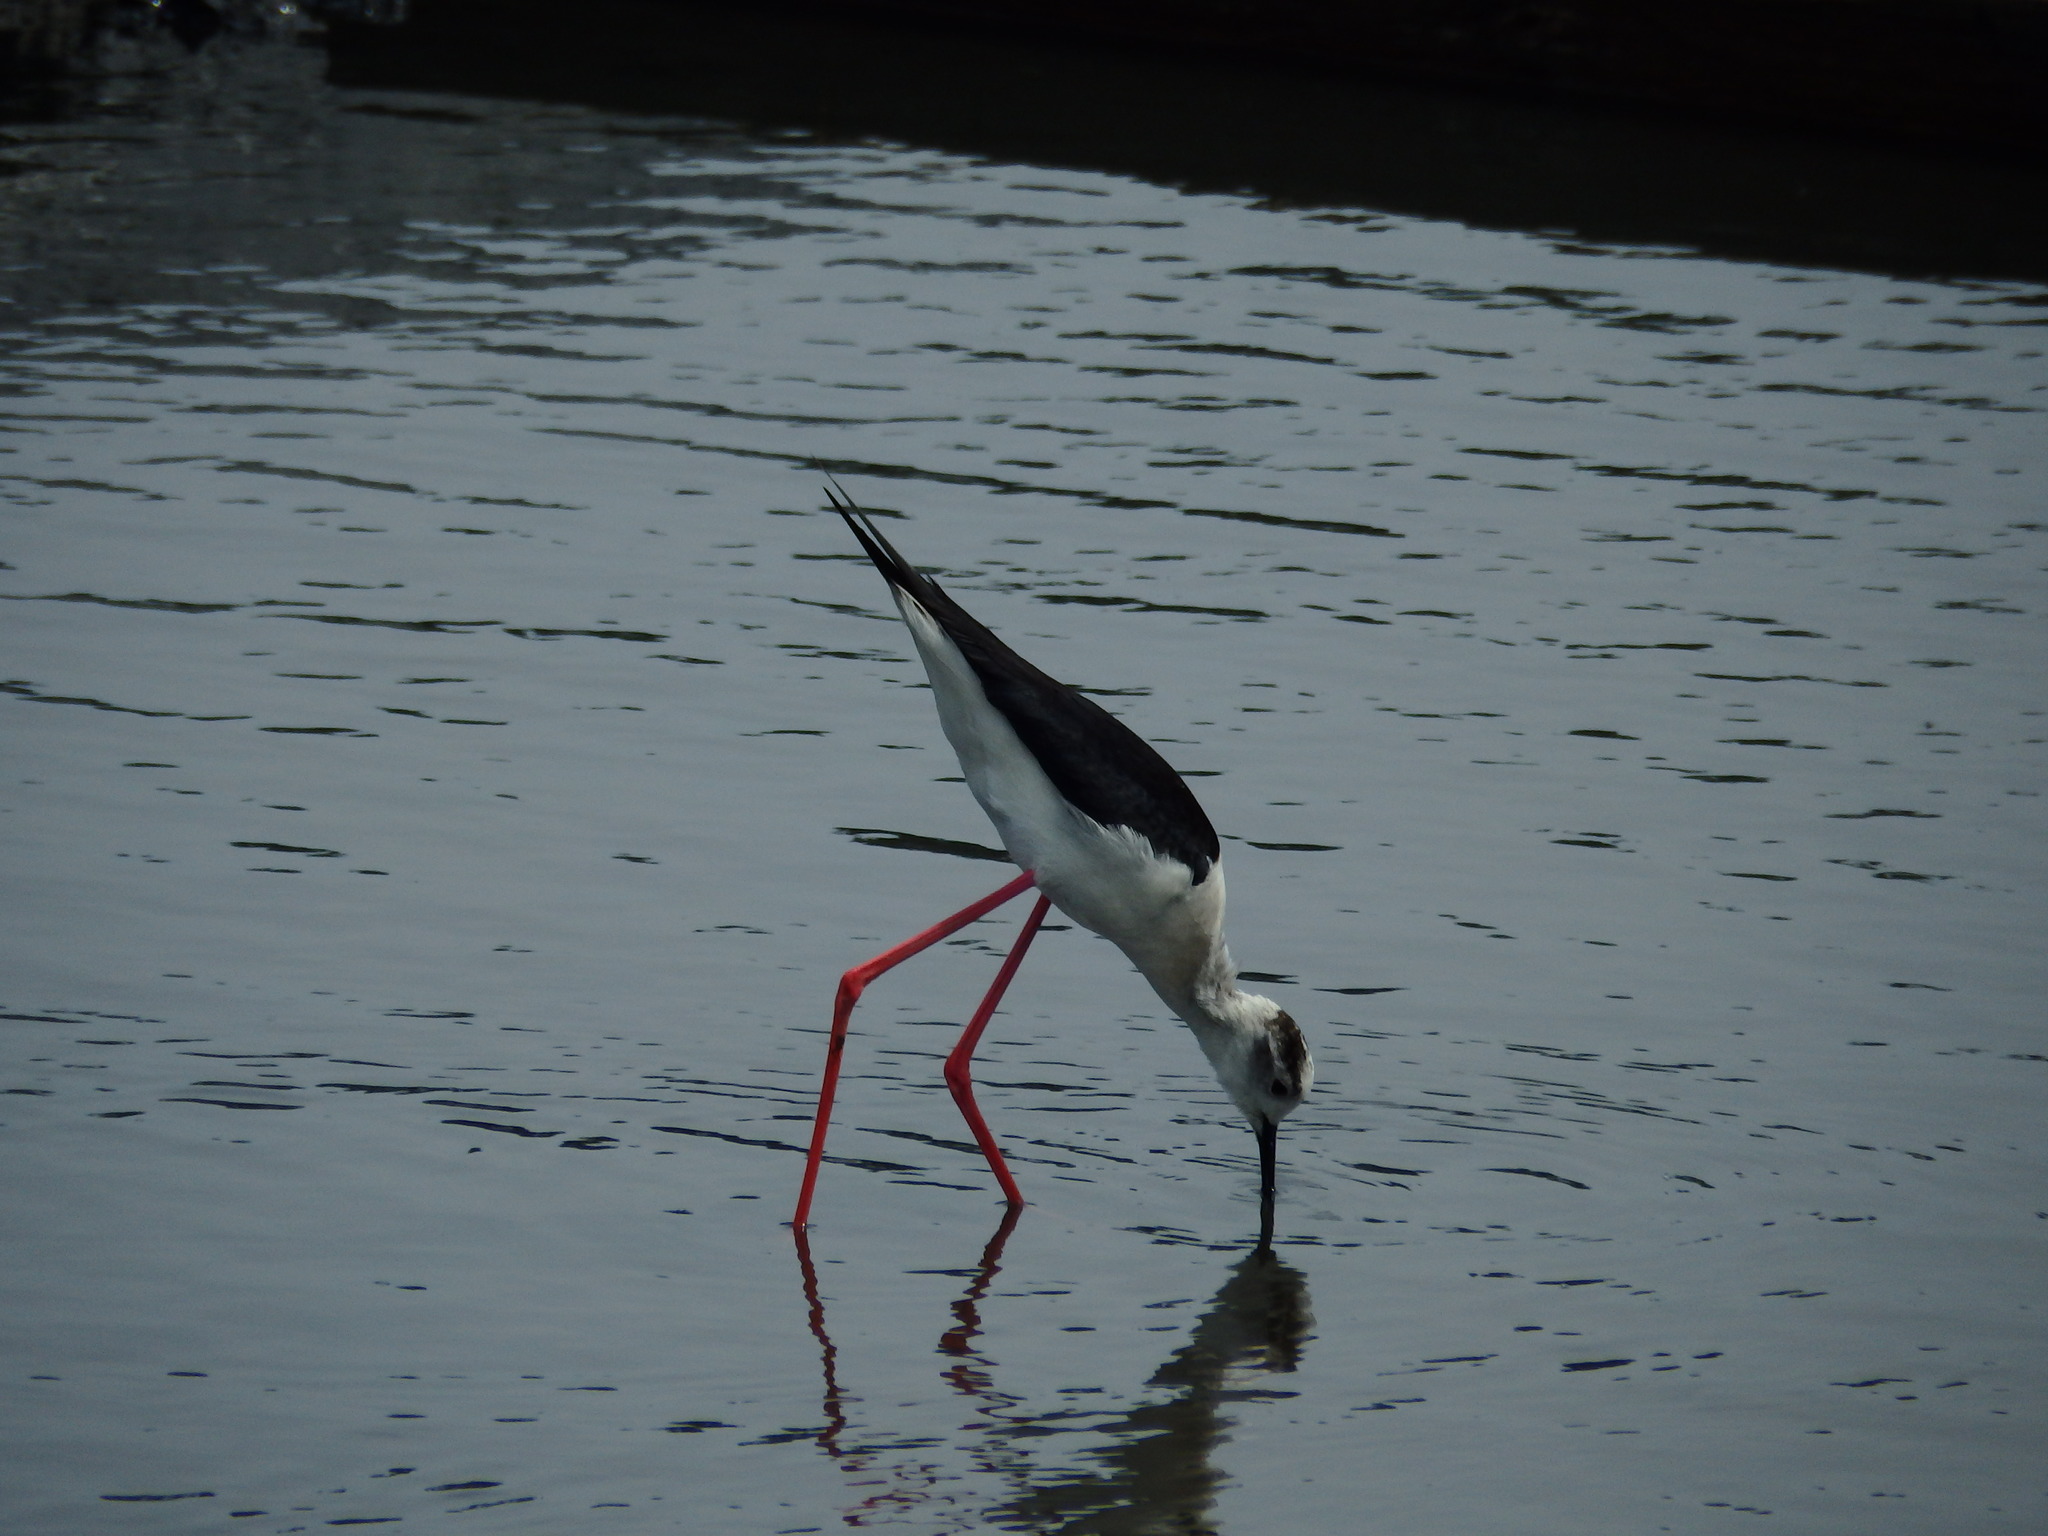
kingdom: Animalia
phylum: Chordata
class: Aves
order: Charadriiformes
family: Recurvirostridae
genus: Himantopus
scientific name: Himantopus himantopus
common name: Black-winged stilt
